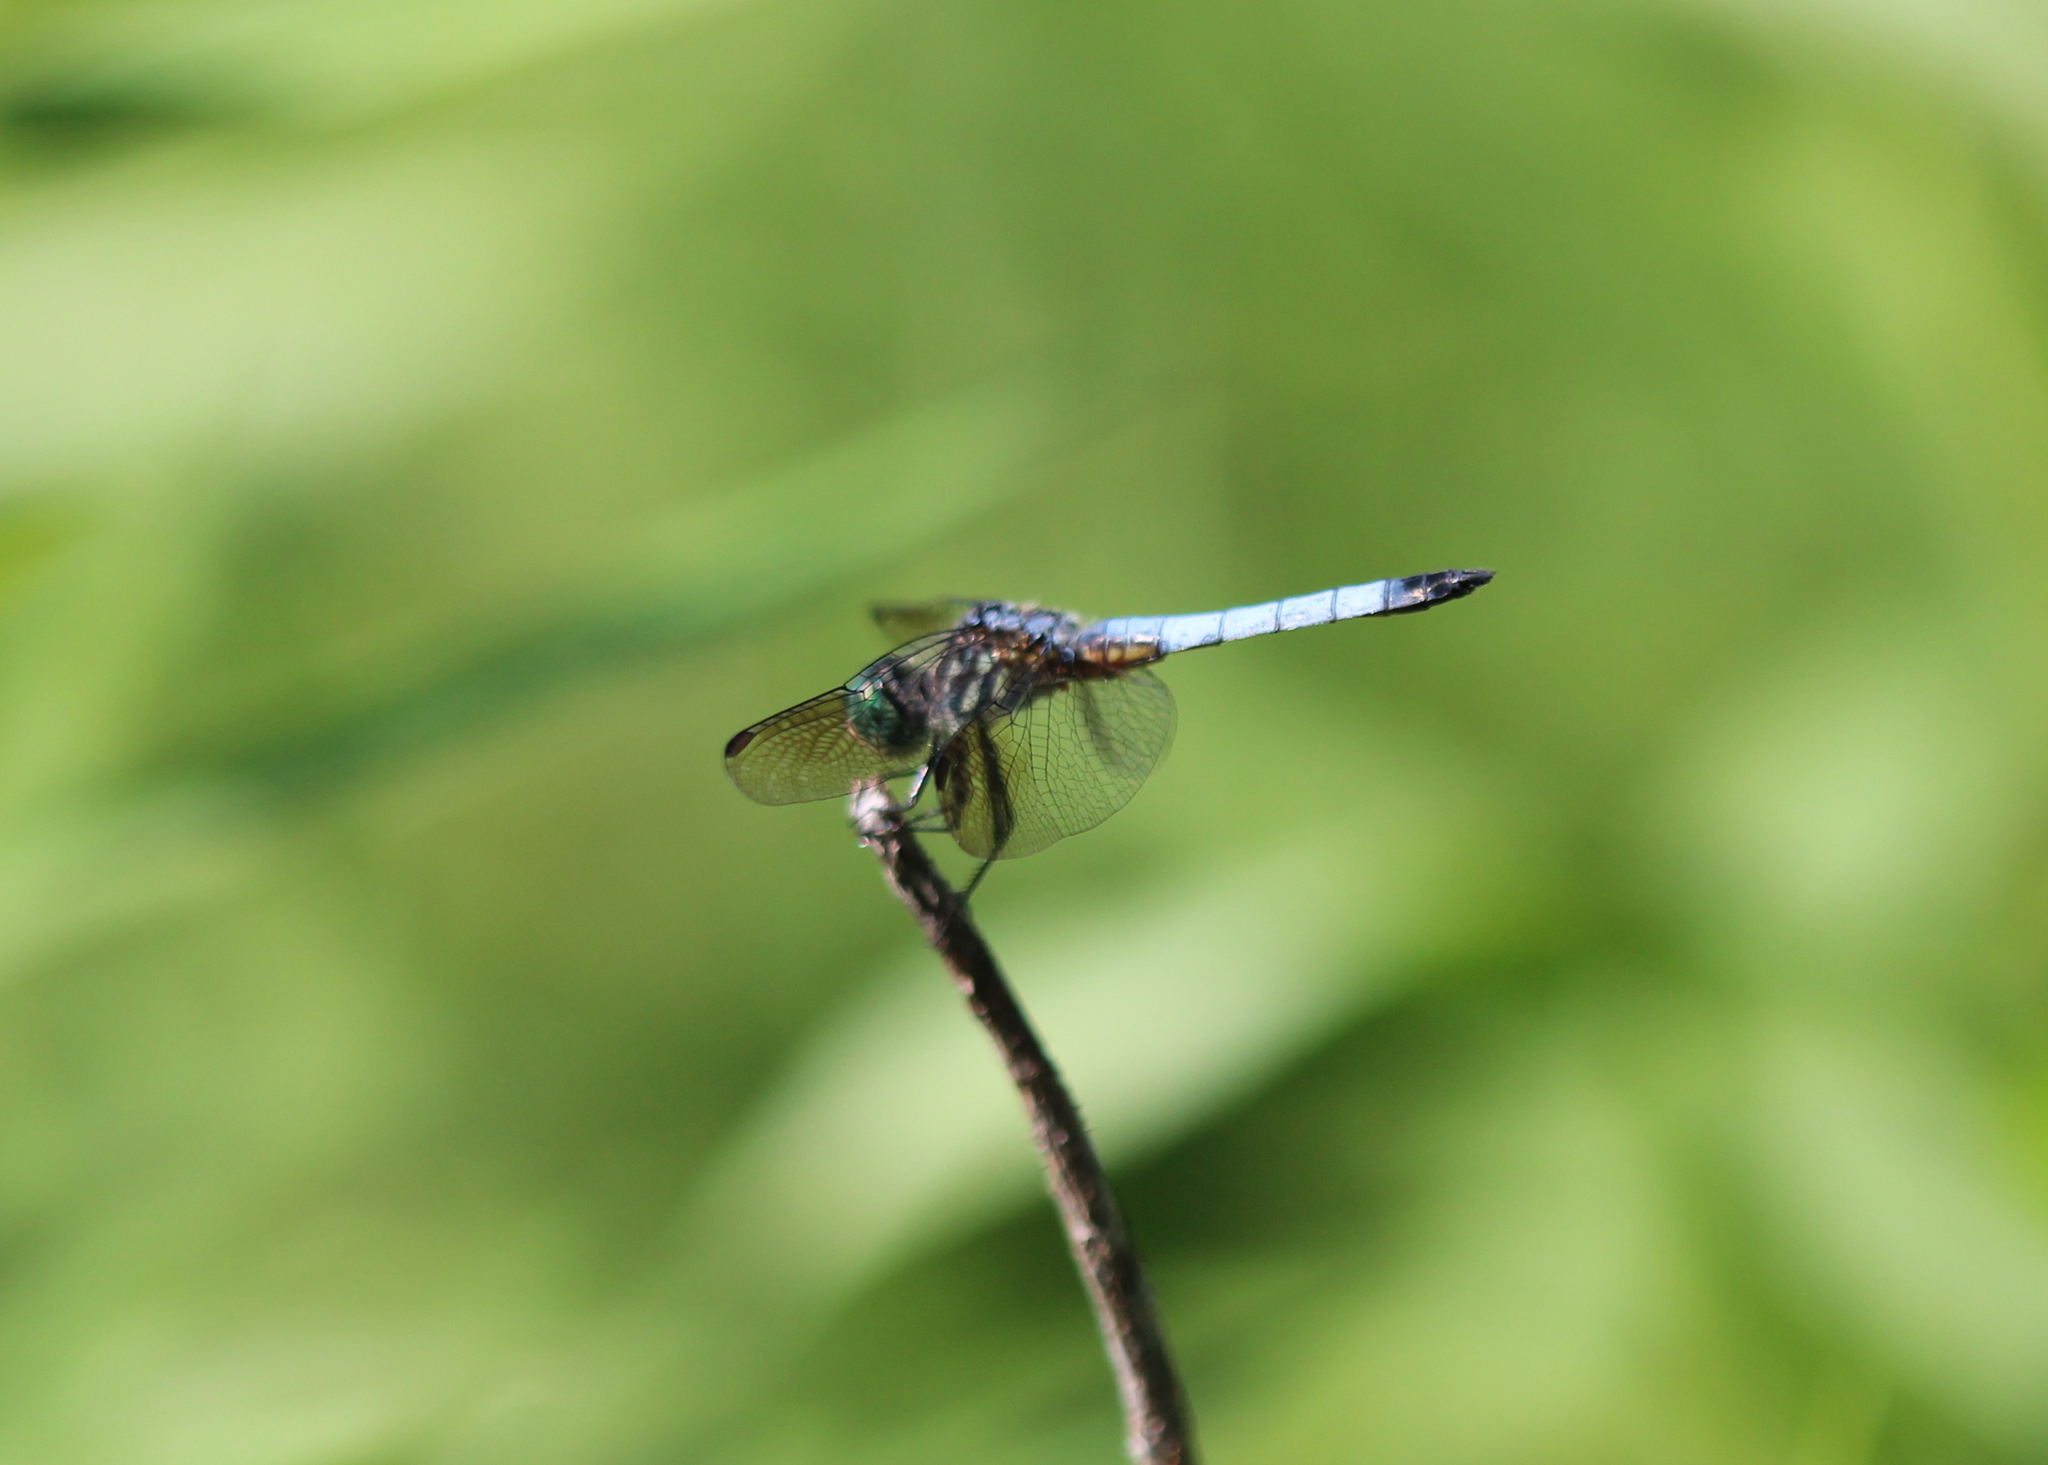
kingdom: Animalia
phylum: Arthropoda
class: Insecta
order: Odonata
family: Libellulidae
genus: Pachydiplax
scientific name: Pachydiplax longipennis
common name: Blue dasher
